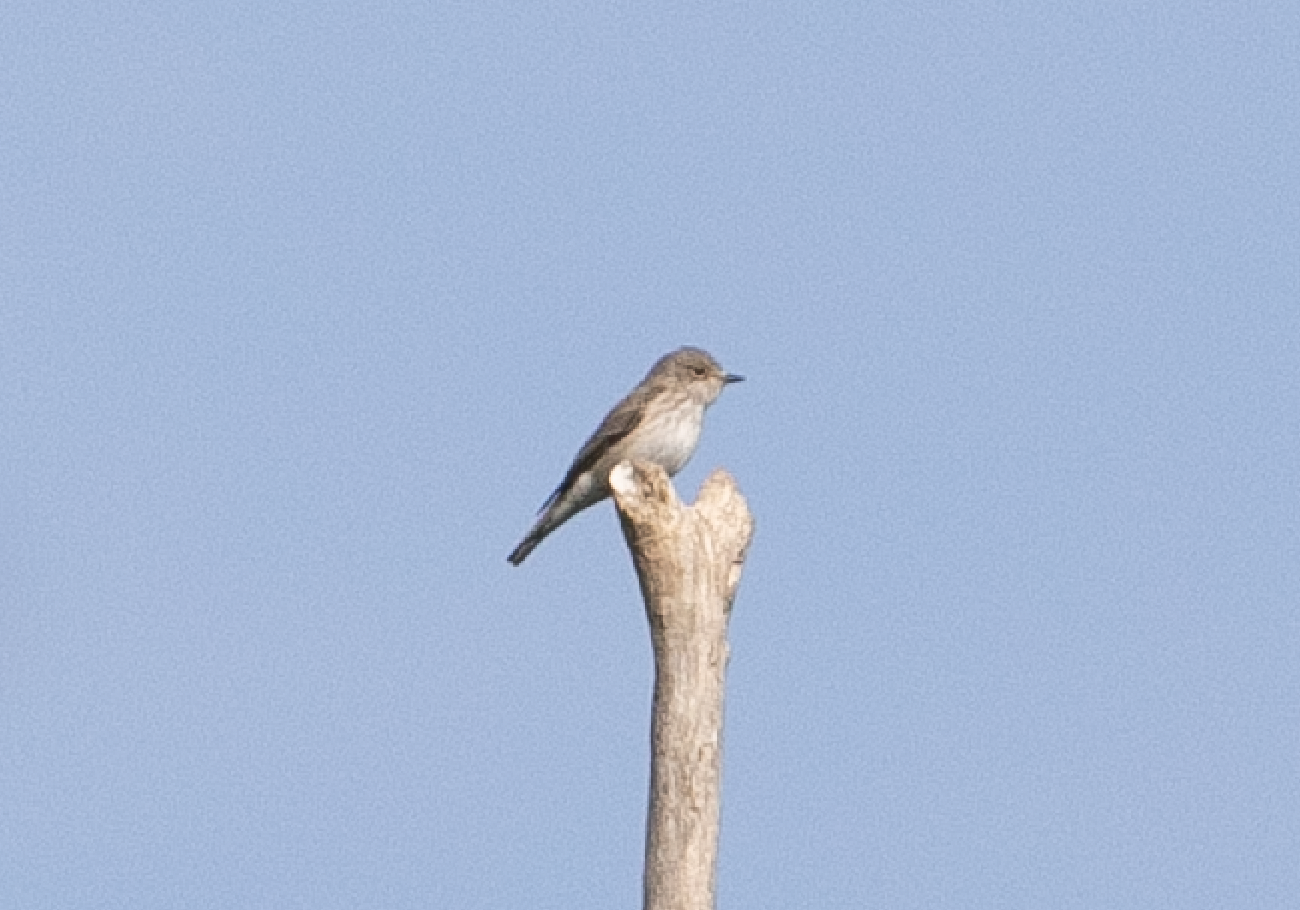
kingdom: Animalia
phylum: Chordata
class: Aves
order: Passeriformes
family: Muscicapidae
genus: Muscicapa
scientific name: Muscicapa striata
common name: Spotted flycatcher
